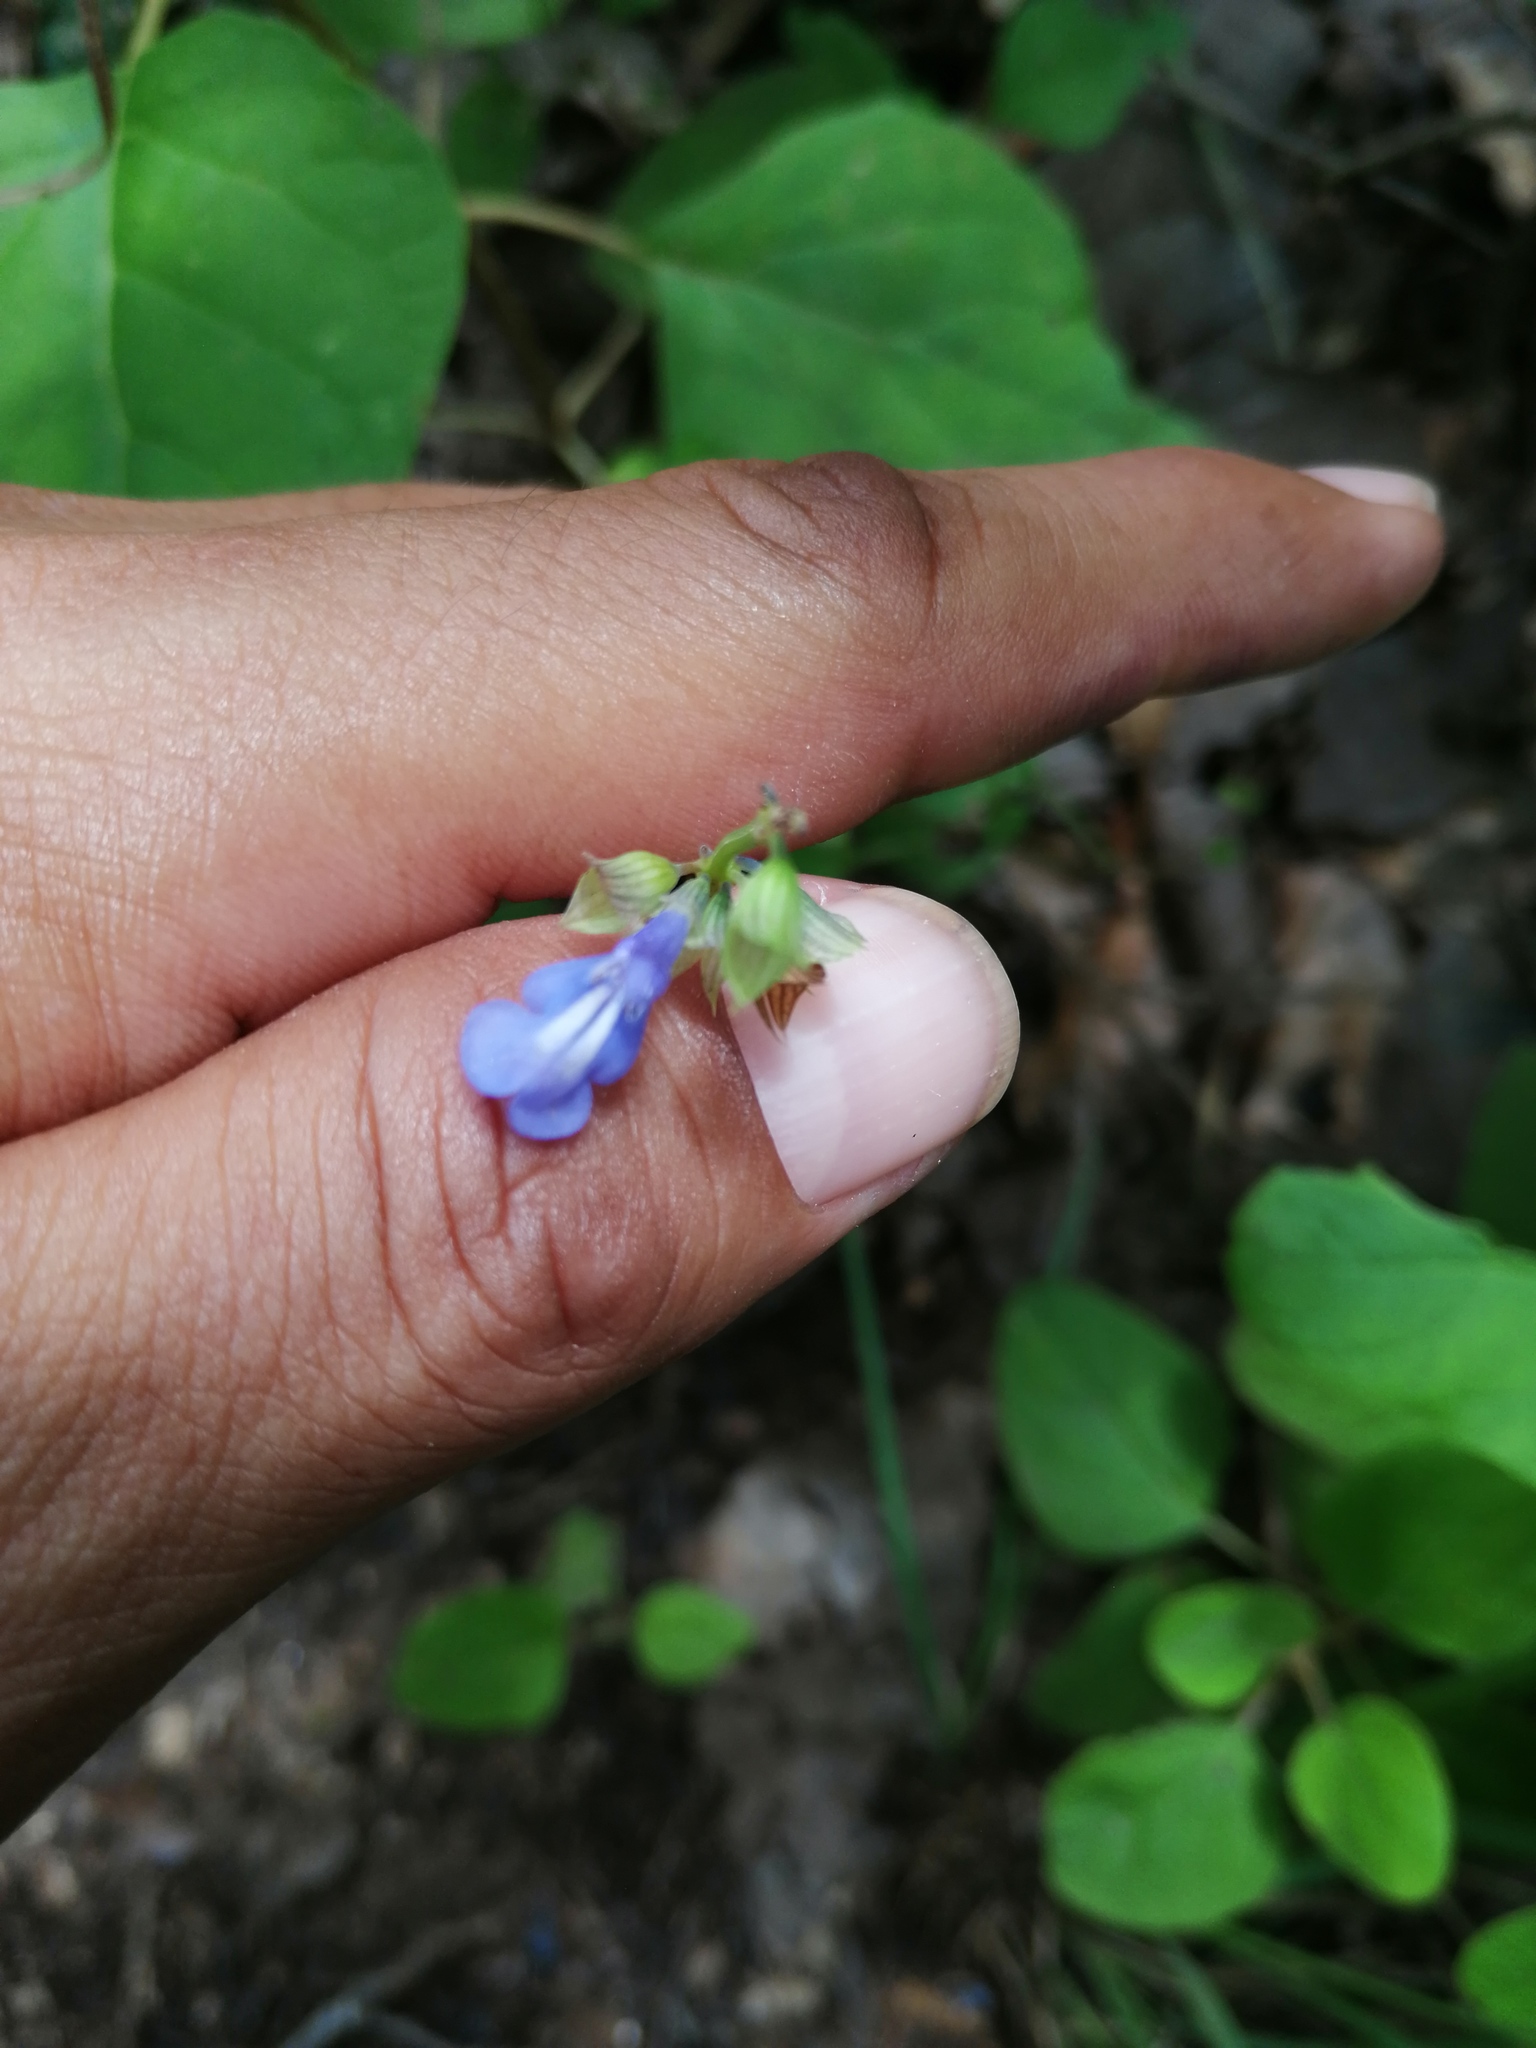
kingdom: Plantae
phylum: Tracheophyta
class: Magnoliopsida
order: Lamiales
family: Lamiaceae
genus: Salvia
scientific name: Salvia prunelloides
